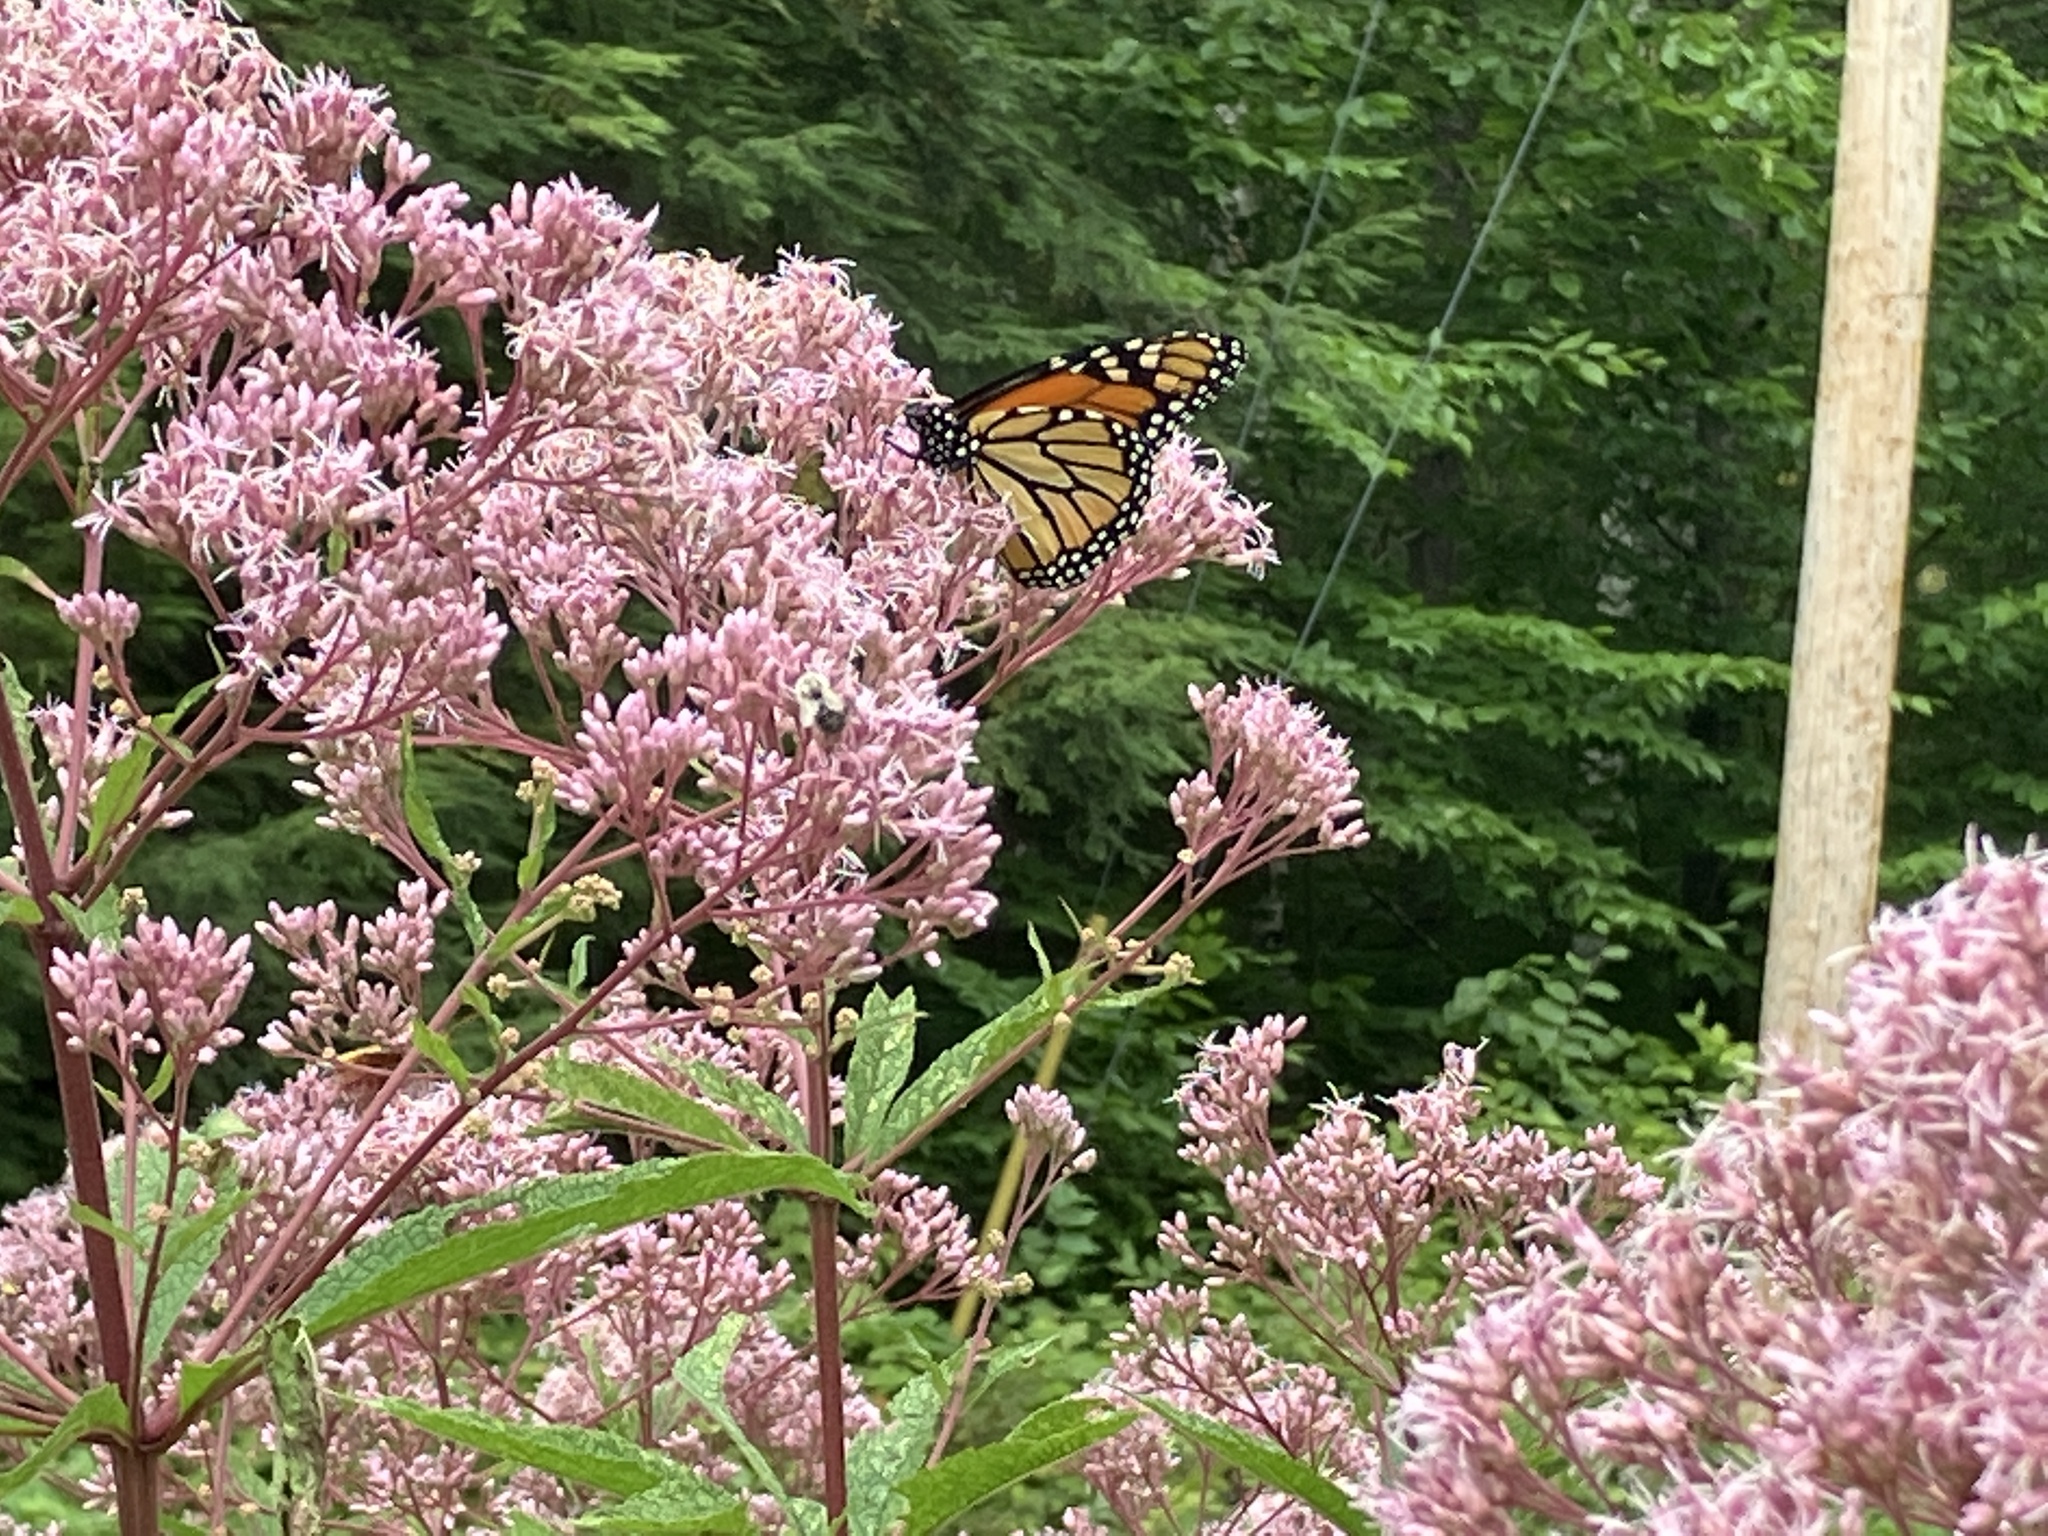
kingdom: Animalia
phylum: Arthropoda
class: Insecta
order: Lepidoptera
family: Nymphalidae
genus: Danaus
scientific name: Danaus plexippus
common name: Monarch
